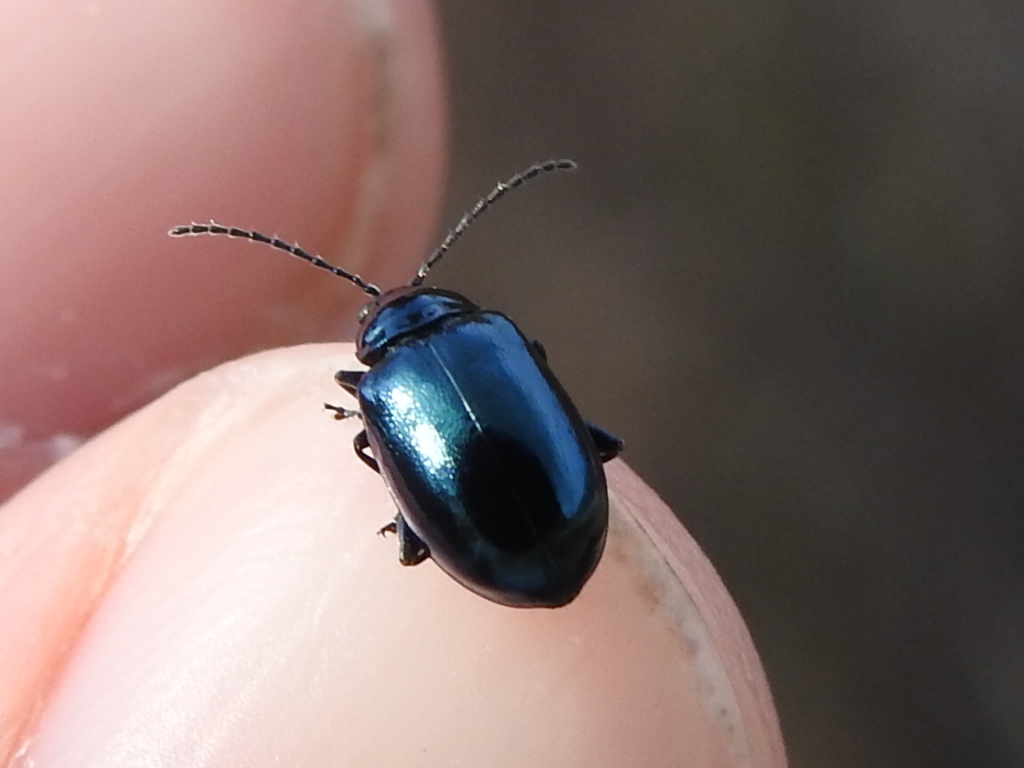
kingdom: Animalia
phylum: Arthropoda
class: Insecta
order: Coleoptera
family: Chrysomelidae
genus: Altica
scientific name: Altica chalybea
